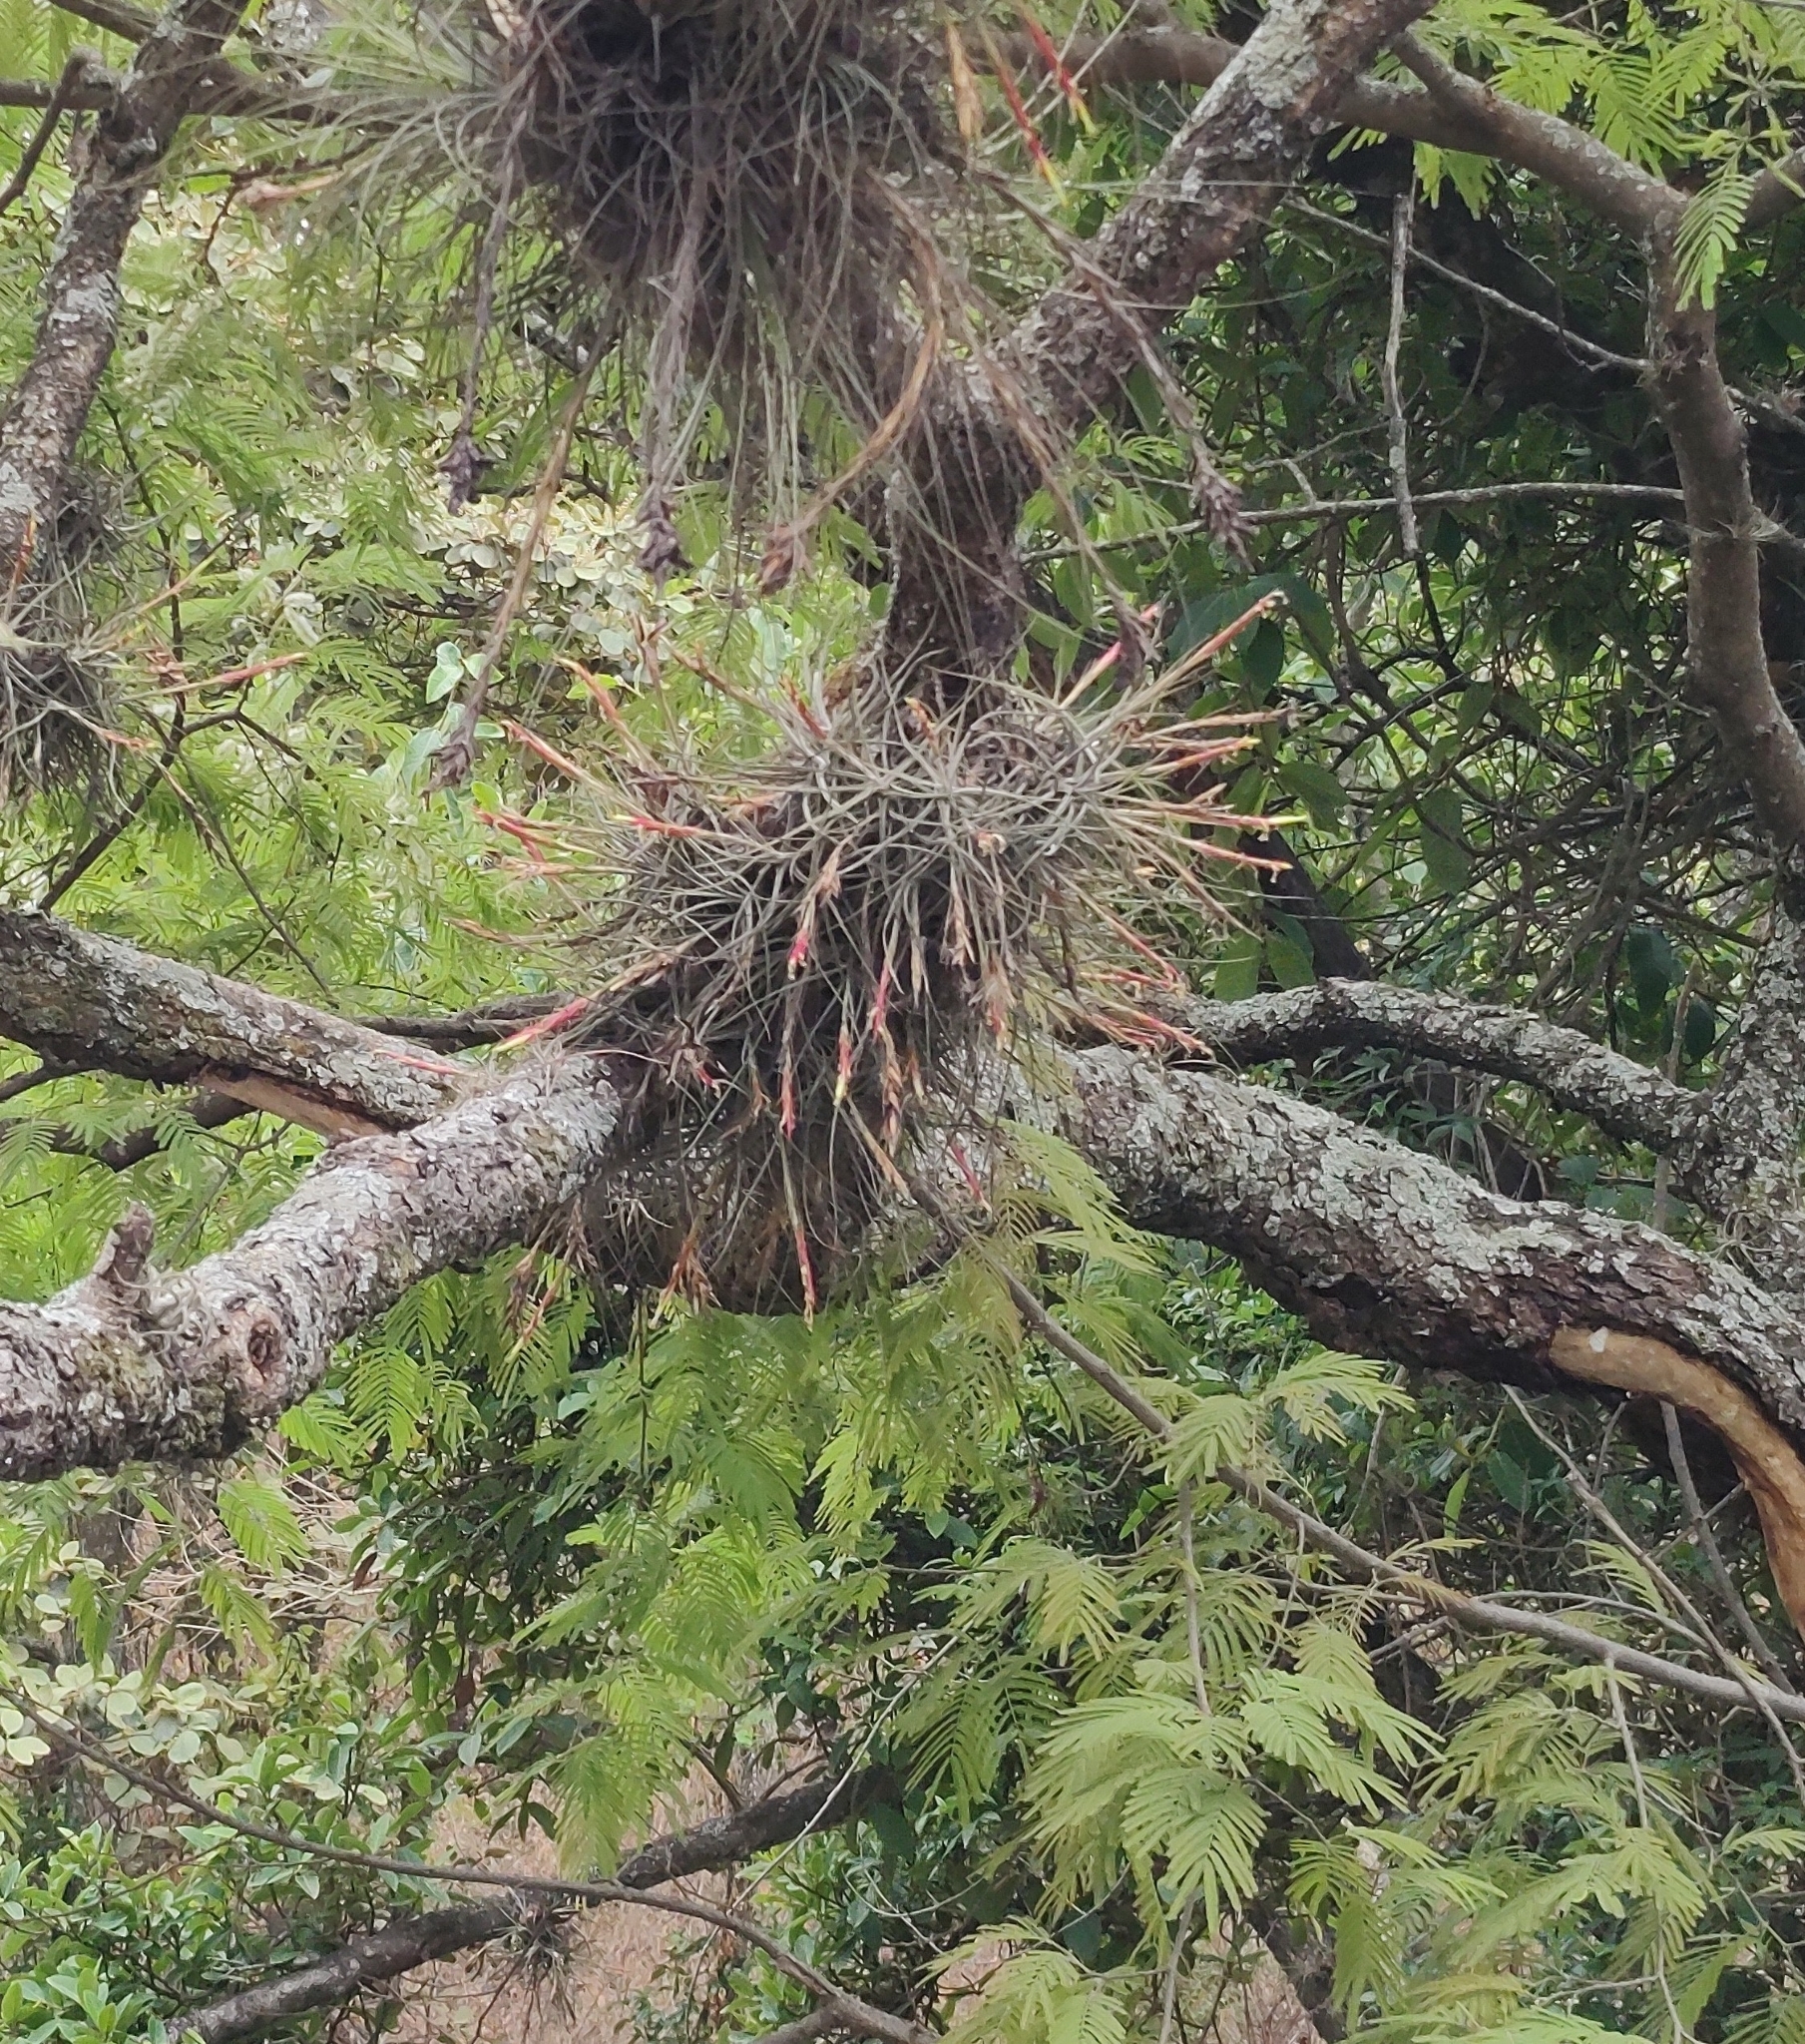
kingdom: Plantae
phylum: Tracheophyta
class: Liliopsida
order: Poales
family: Bromeliaceae
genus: Tillandsia
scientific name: Tillandsia schiedeana
